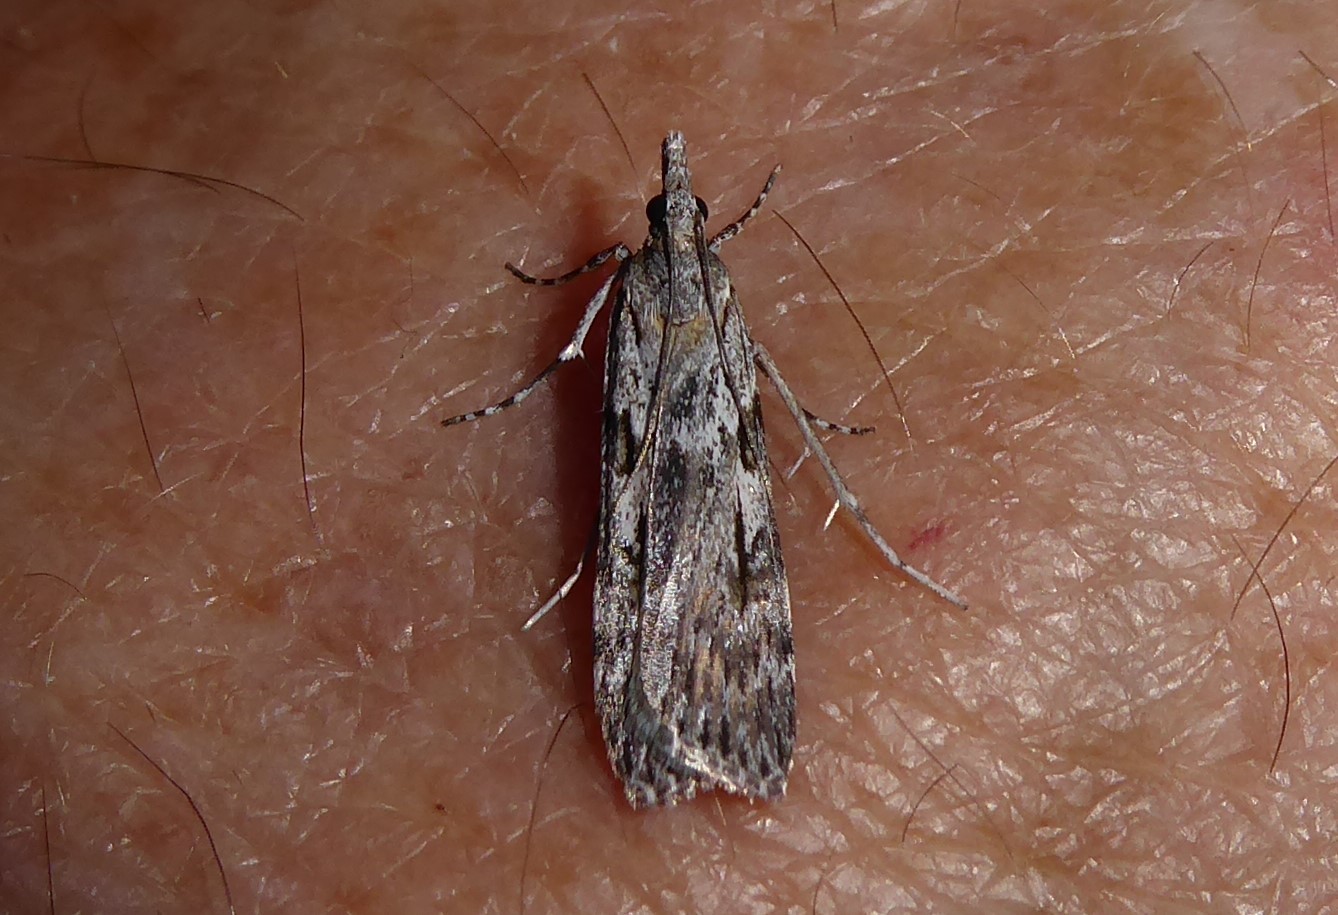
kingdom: Animalia
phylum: Arthropoda
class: Insecta
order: Lepidoptera
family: Crambidae
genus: Scoparia
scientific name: Scoparia halopis
